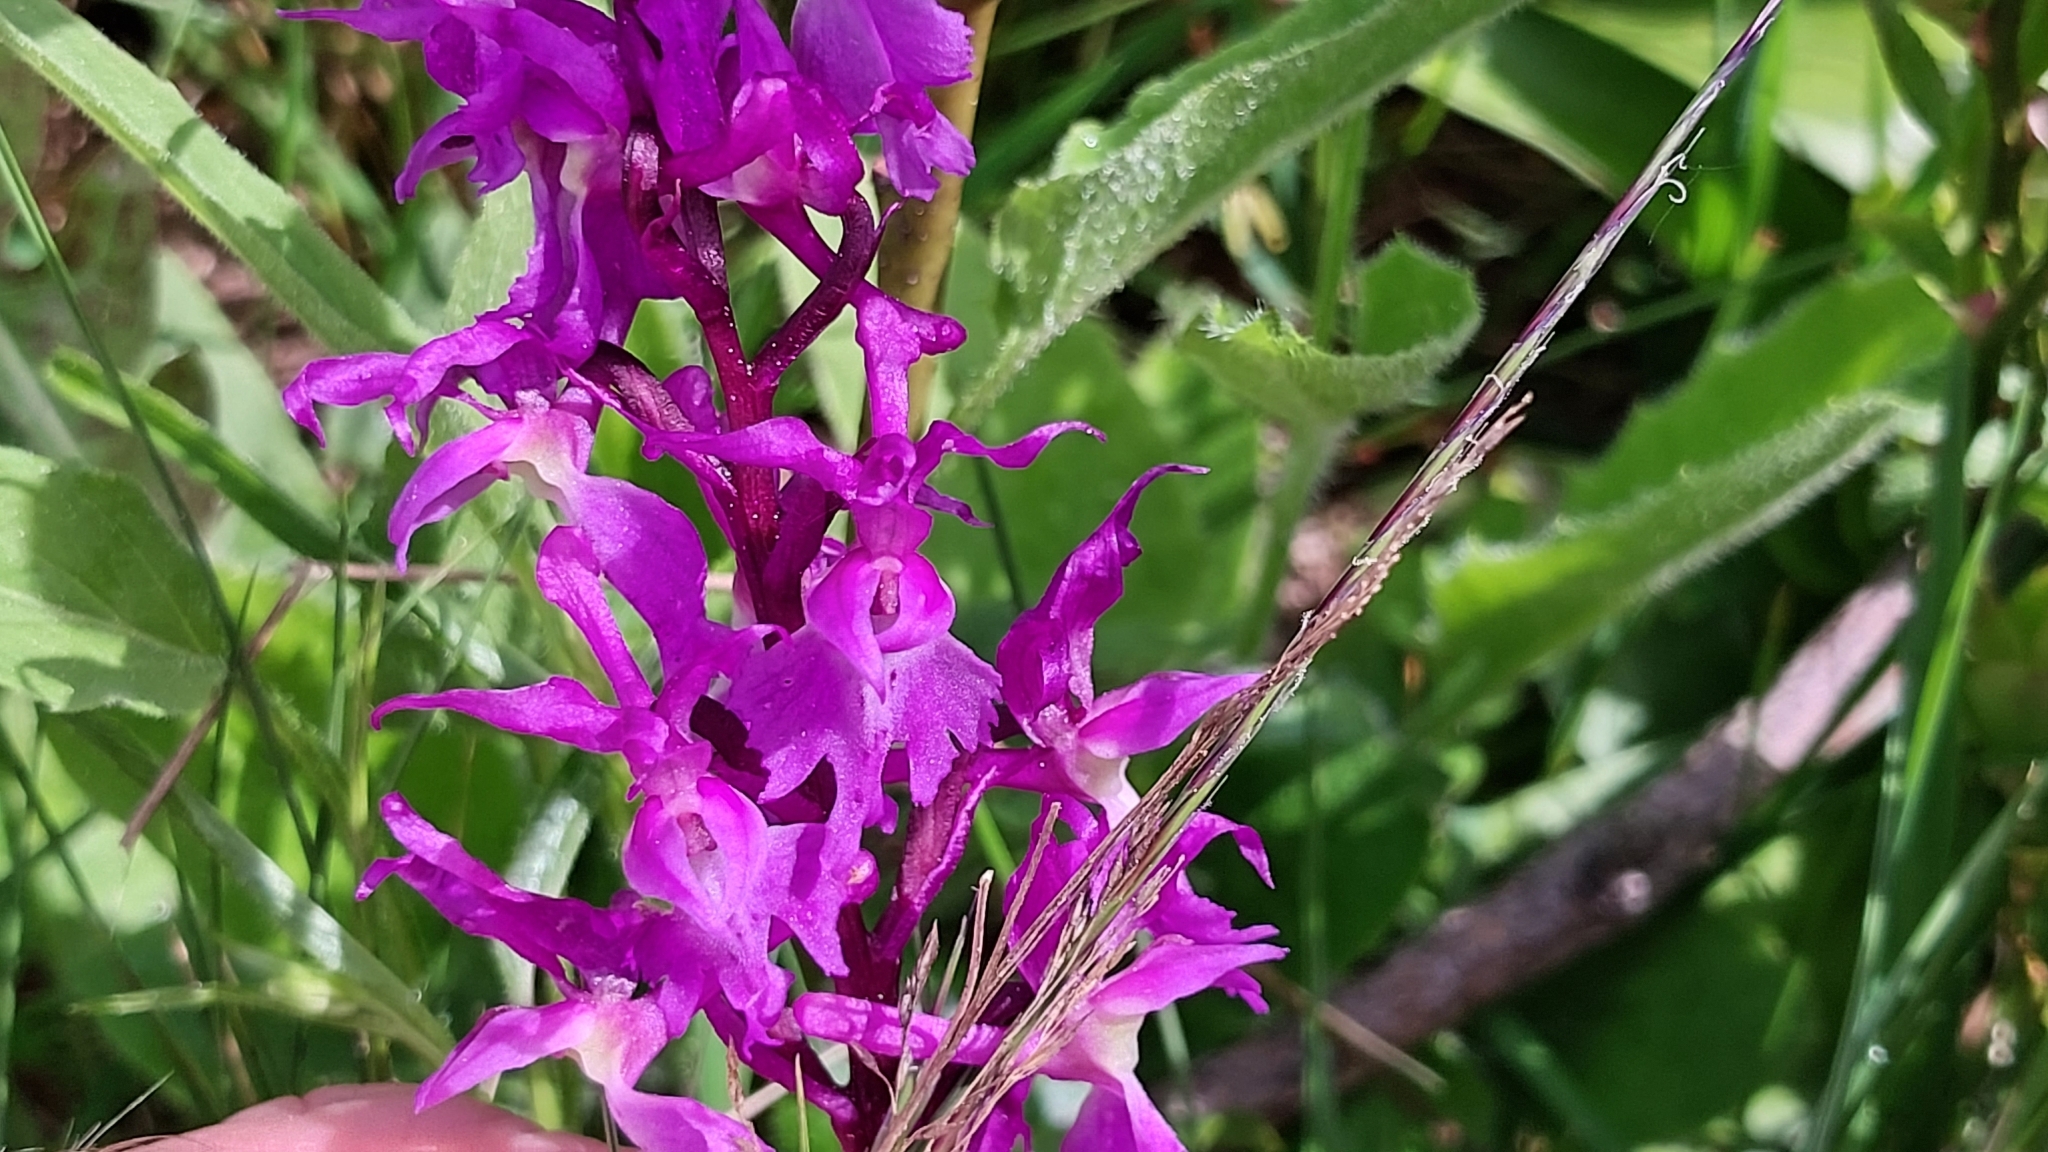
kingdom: Plantae
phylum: Tracheophyta
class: Liliopsida
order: Asparagales
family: Orchidaceae
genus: Orchis
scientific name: Orchis mascula
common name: Early-purple orchid
